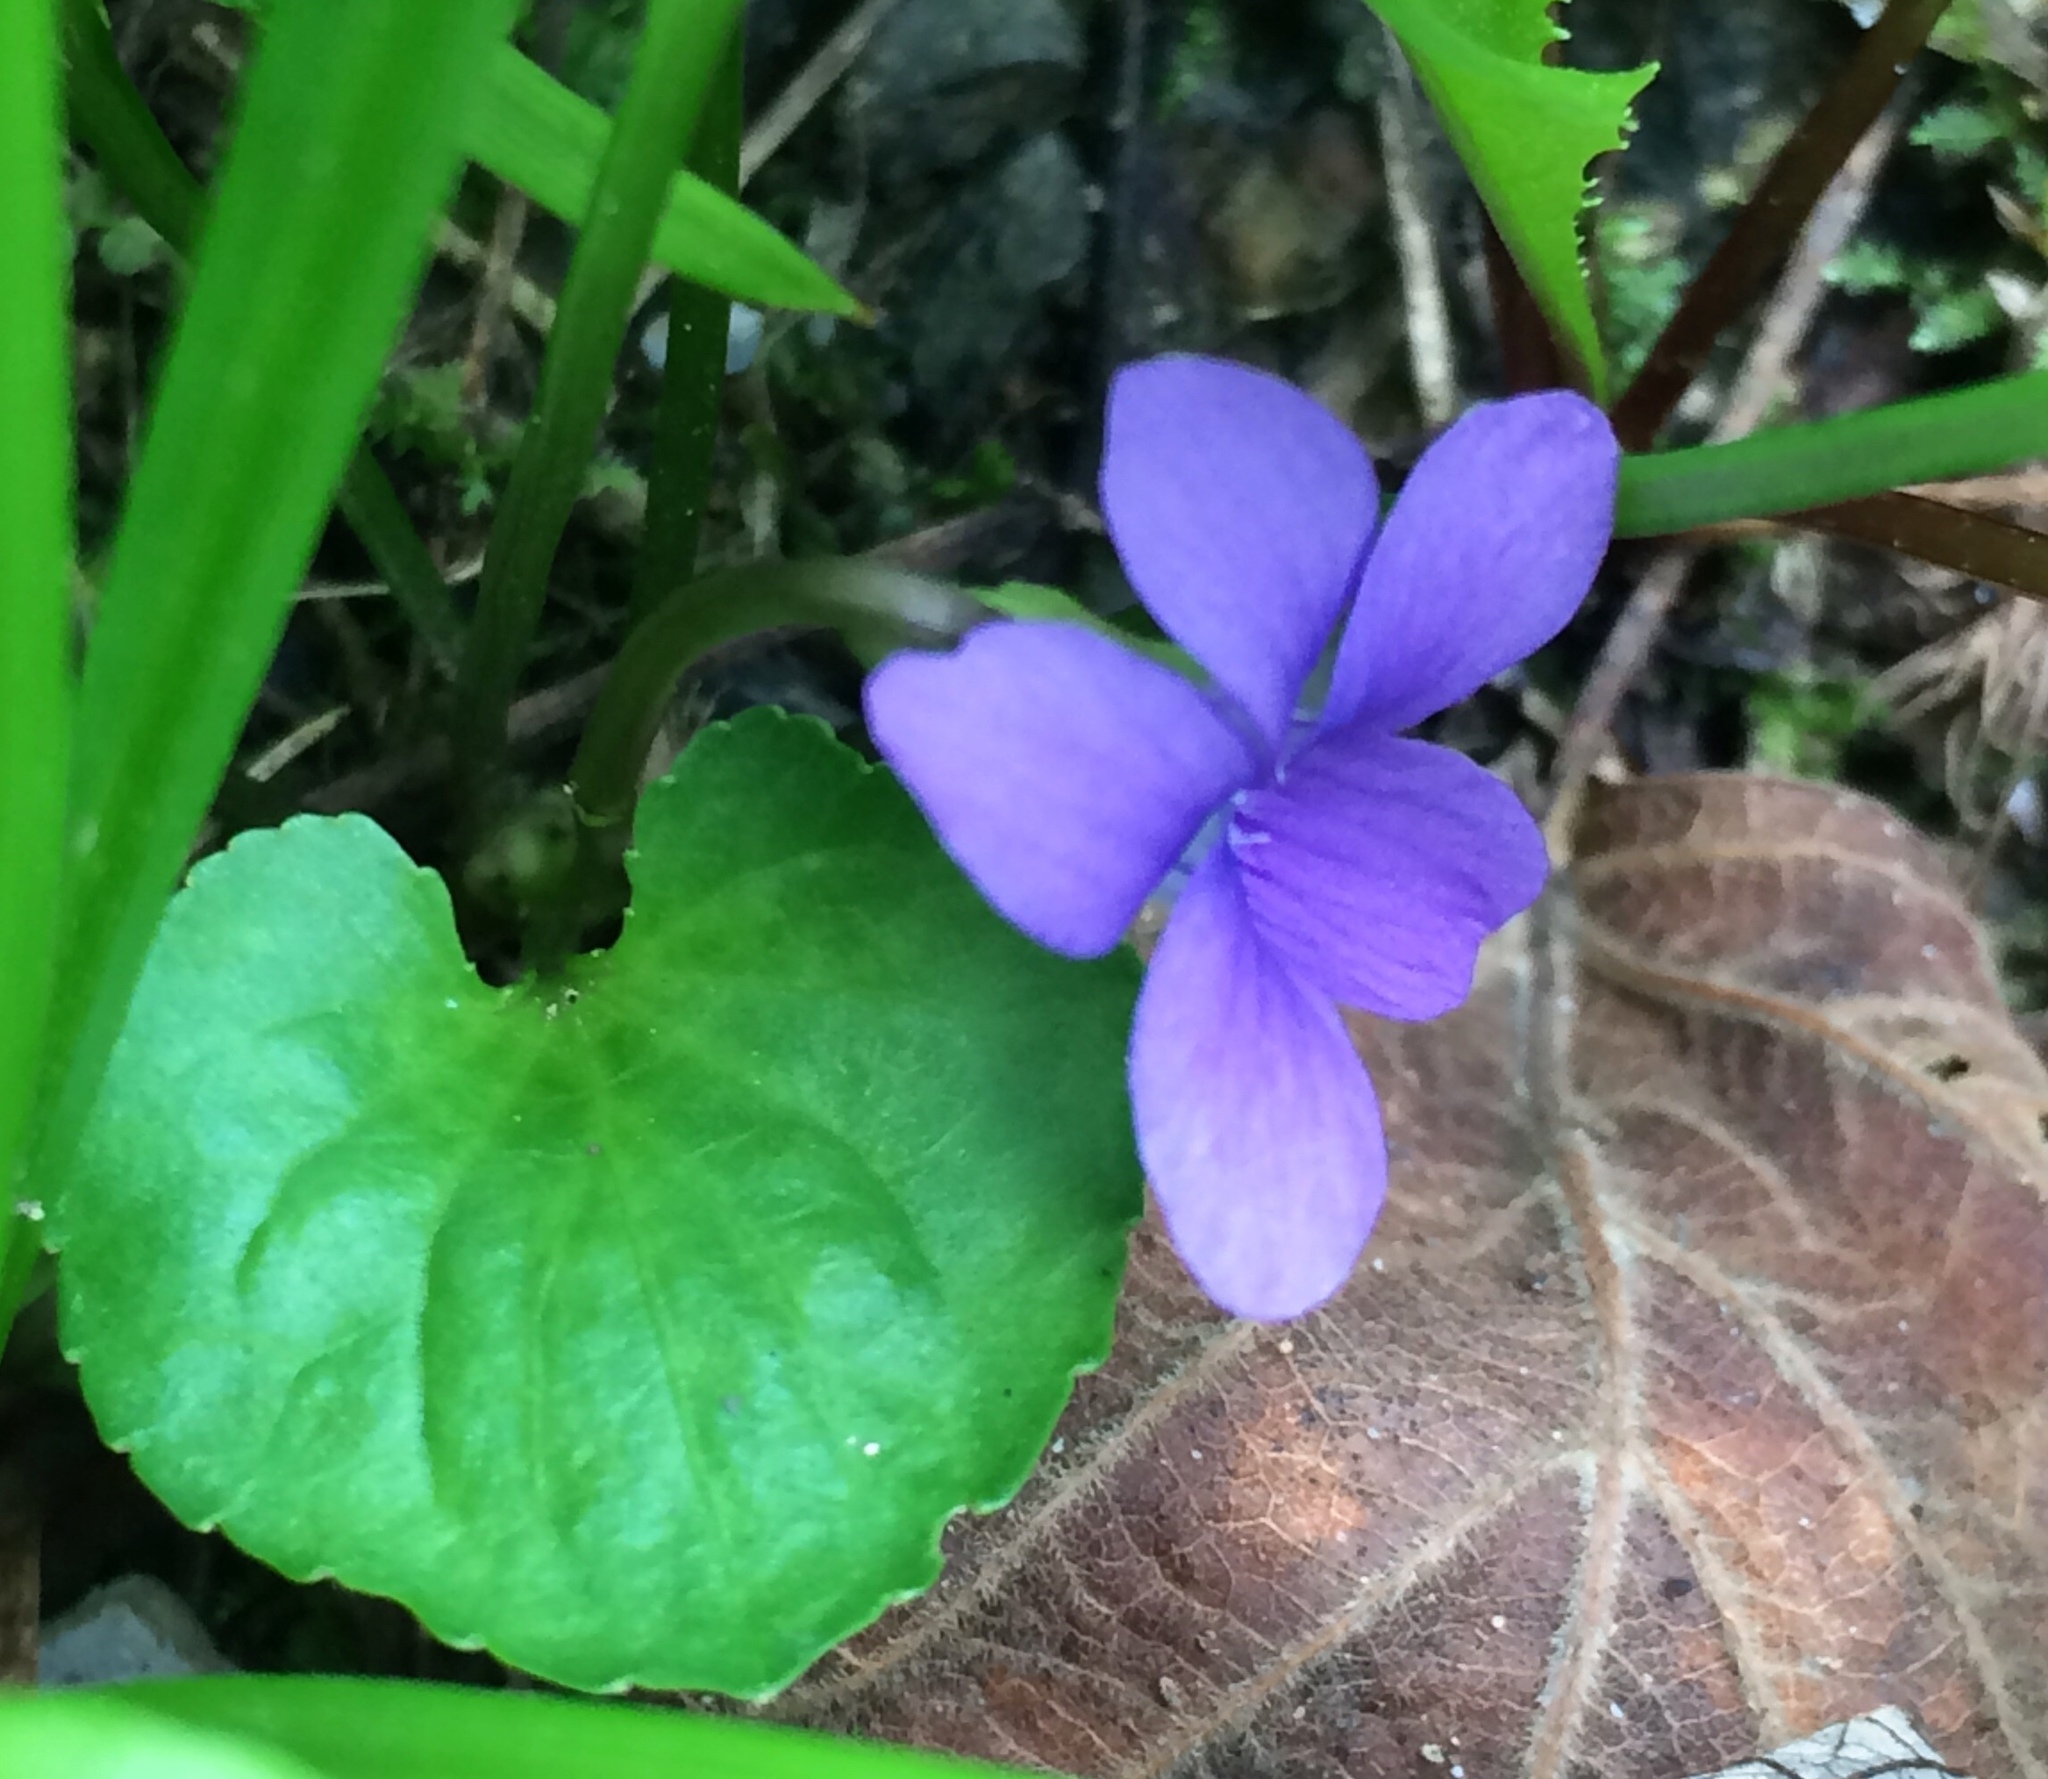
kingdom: Plantae
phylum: Tracheophyta
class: Magnoliopsida
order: Malpighiales
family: Violaceae
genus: Viola
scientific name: Viola sororia
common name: Dooryard violet
